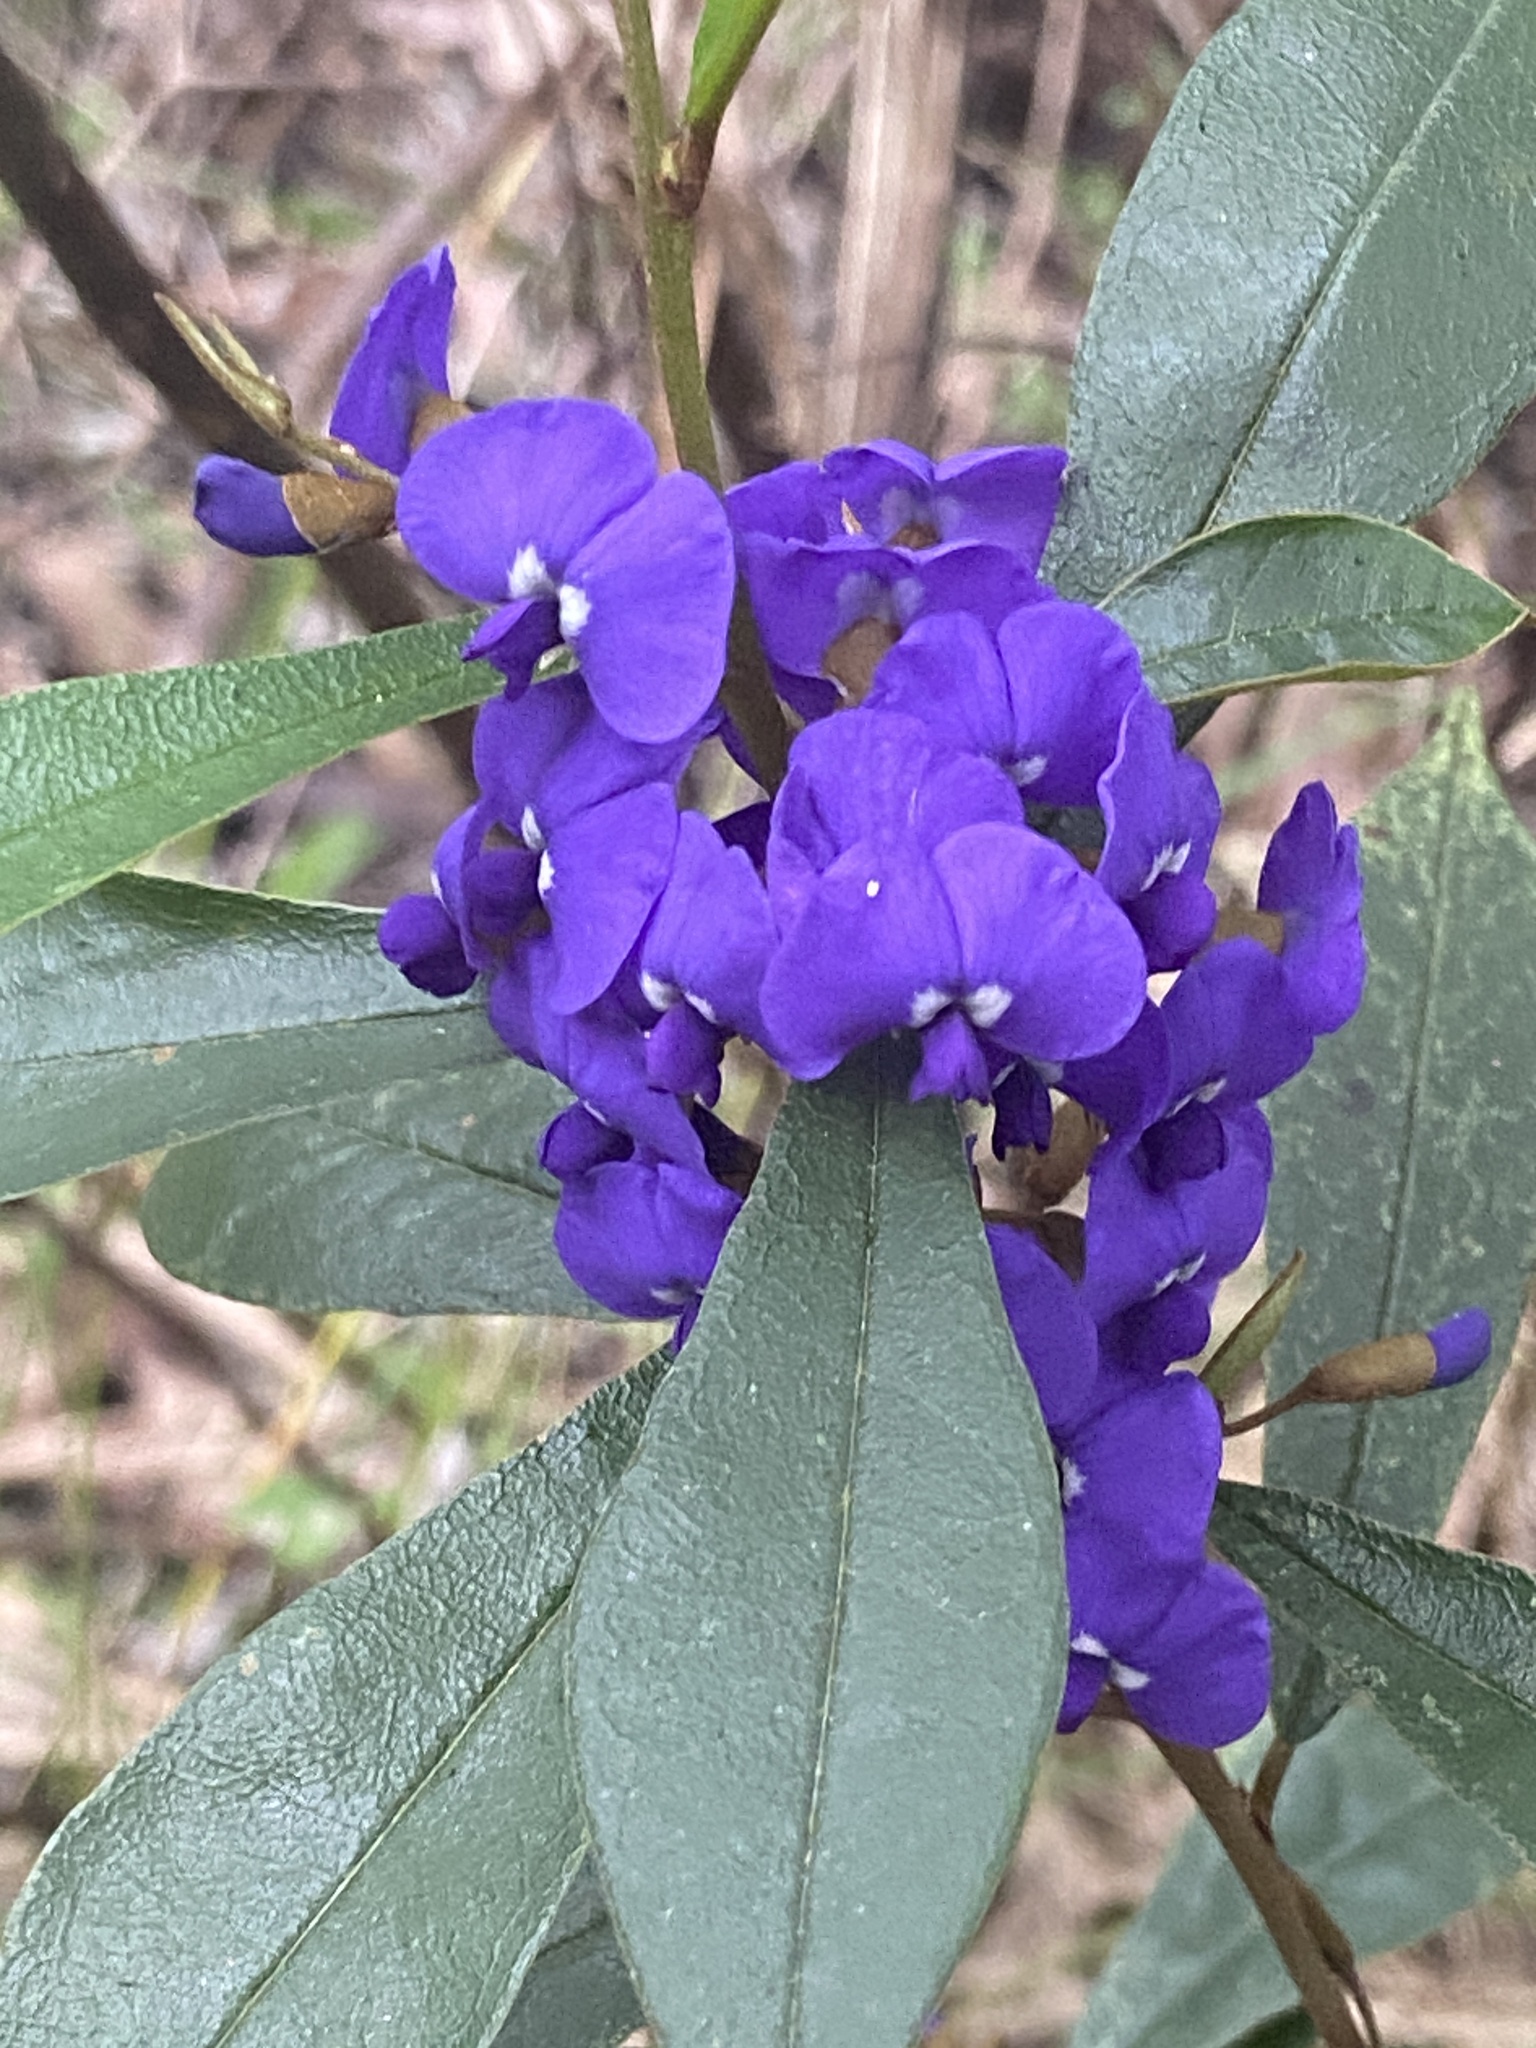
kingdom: Plantae
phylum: Tracheophyta
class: Magnoliopsida
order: Fabales
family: Fabaceae
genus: Hovea
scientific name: Hovea elliptica
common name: Tree hovea
